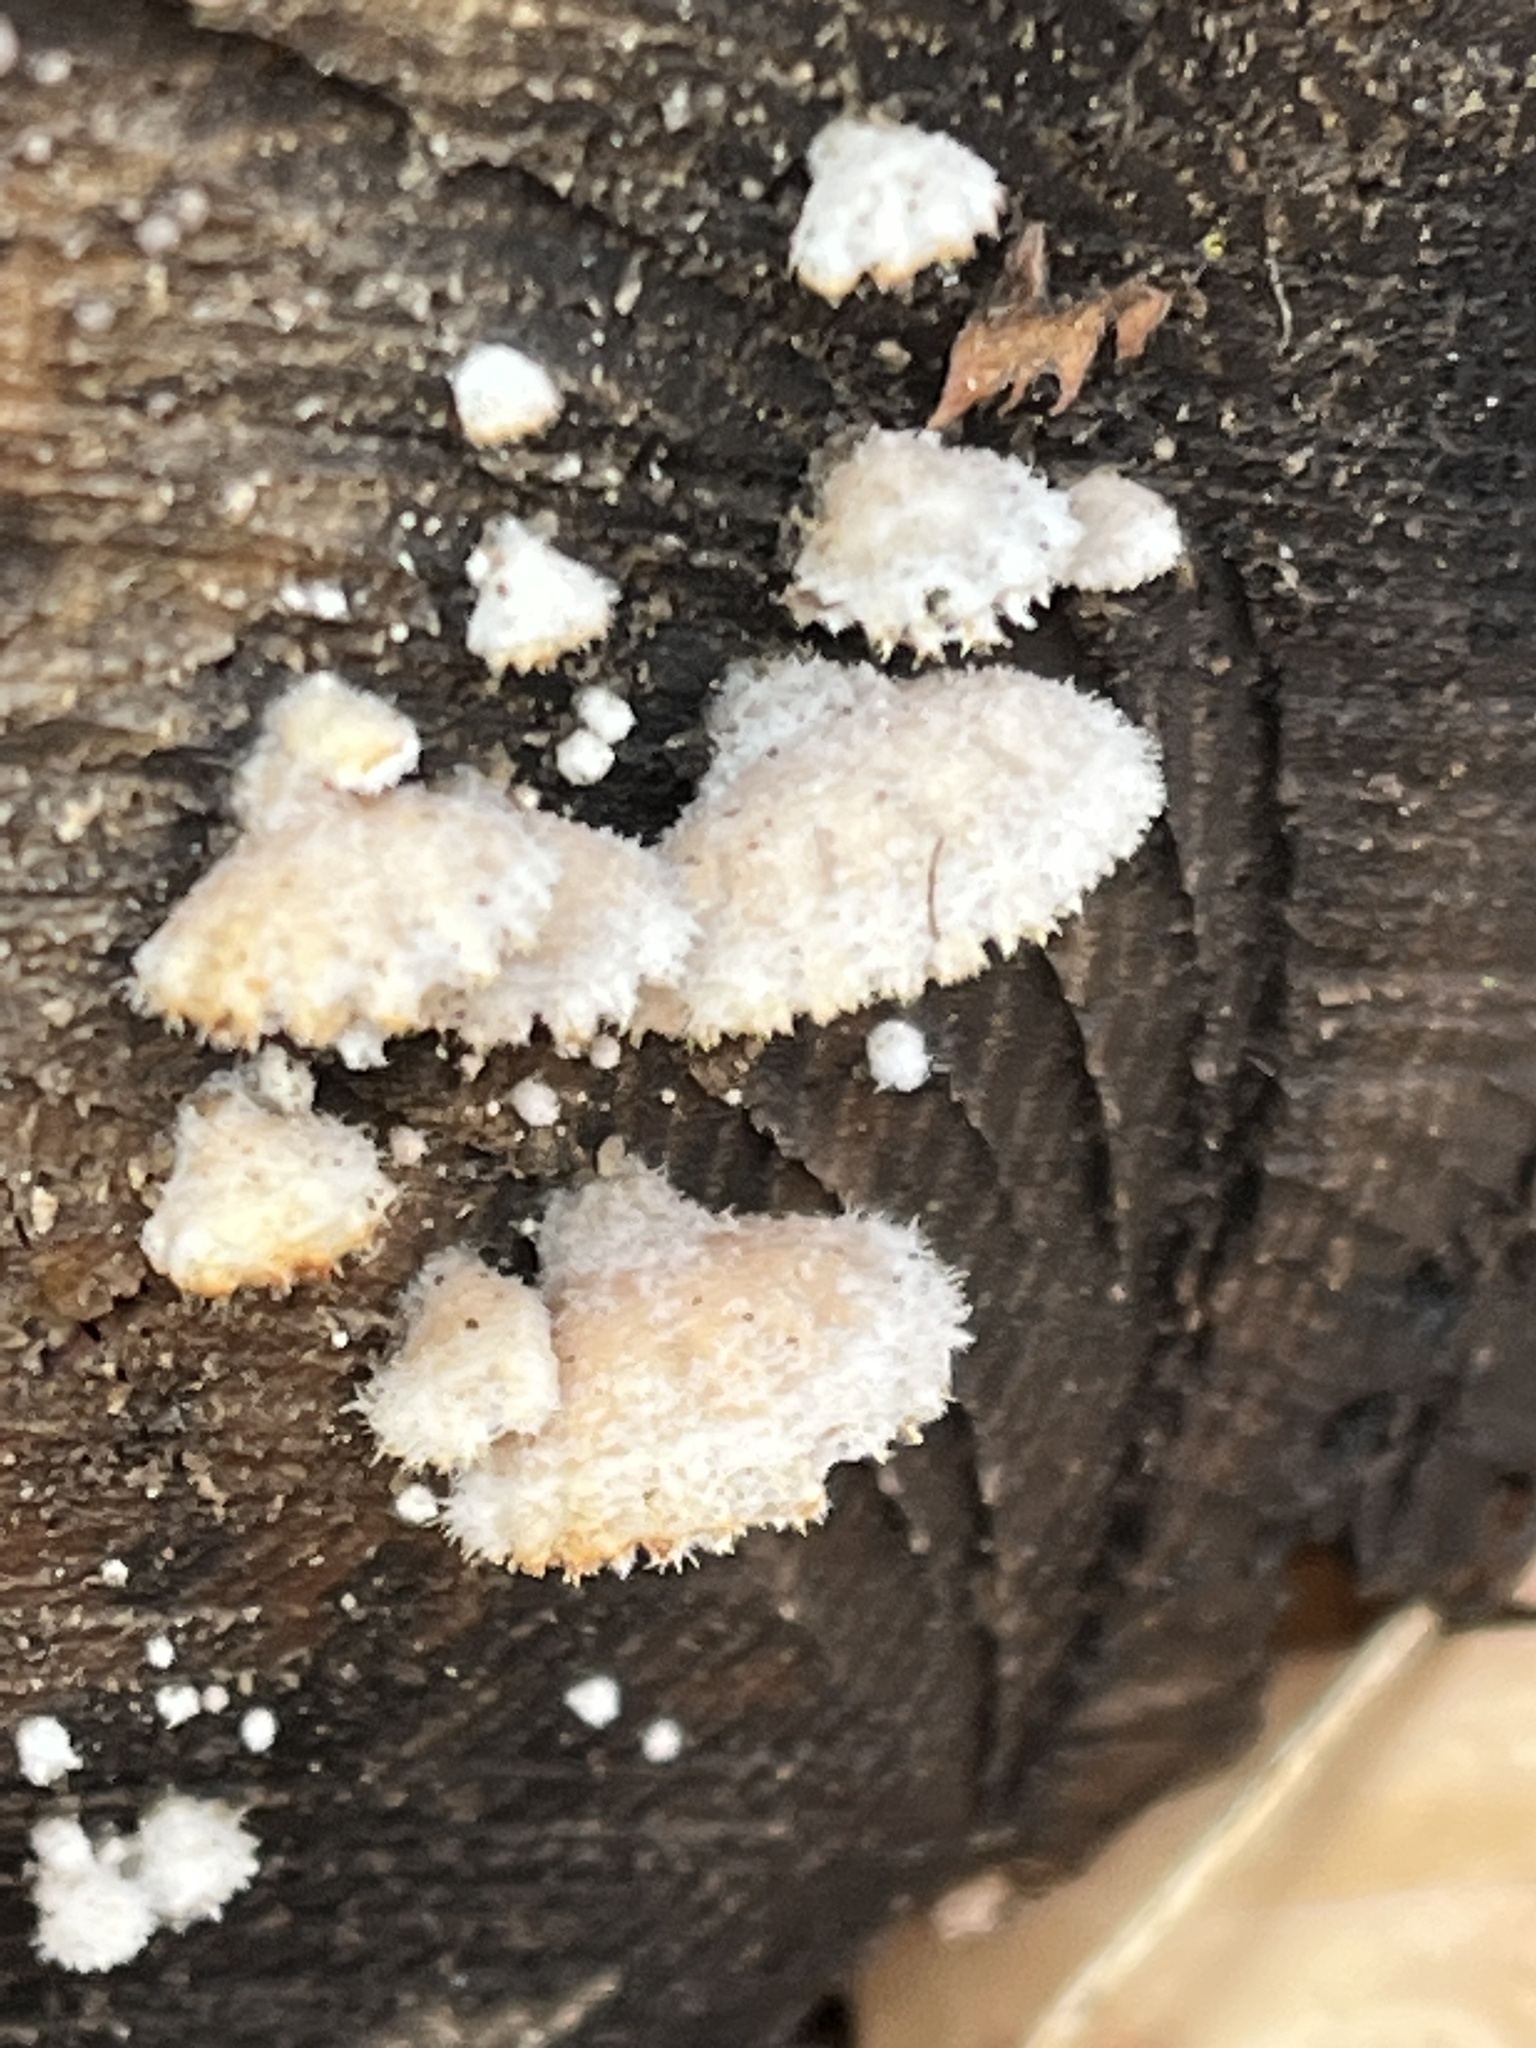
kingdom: Fungi
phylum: Basidiomycota
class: Agaricomycetes
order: Agaricales
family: Schizophyllaceae
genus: Schizophyllum
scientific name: Schizophyllum commune
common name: Common porecrust
